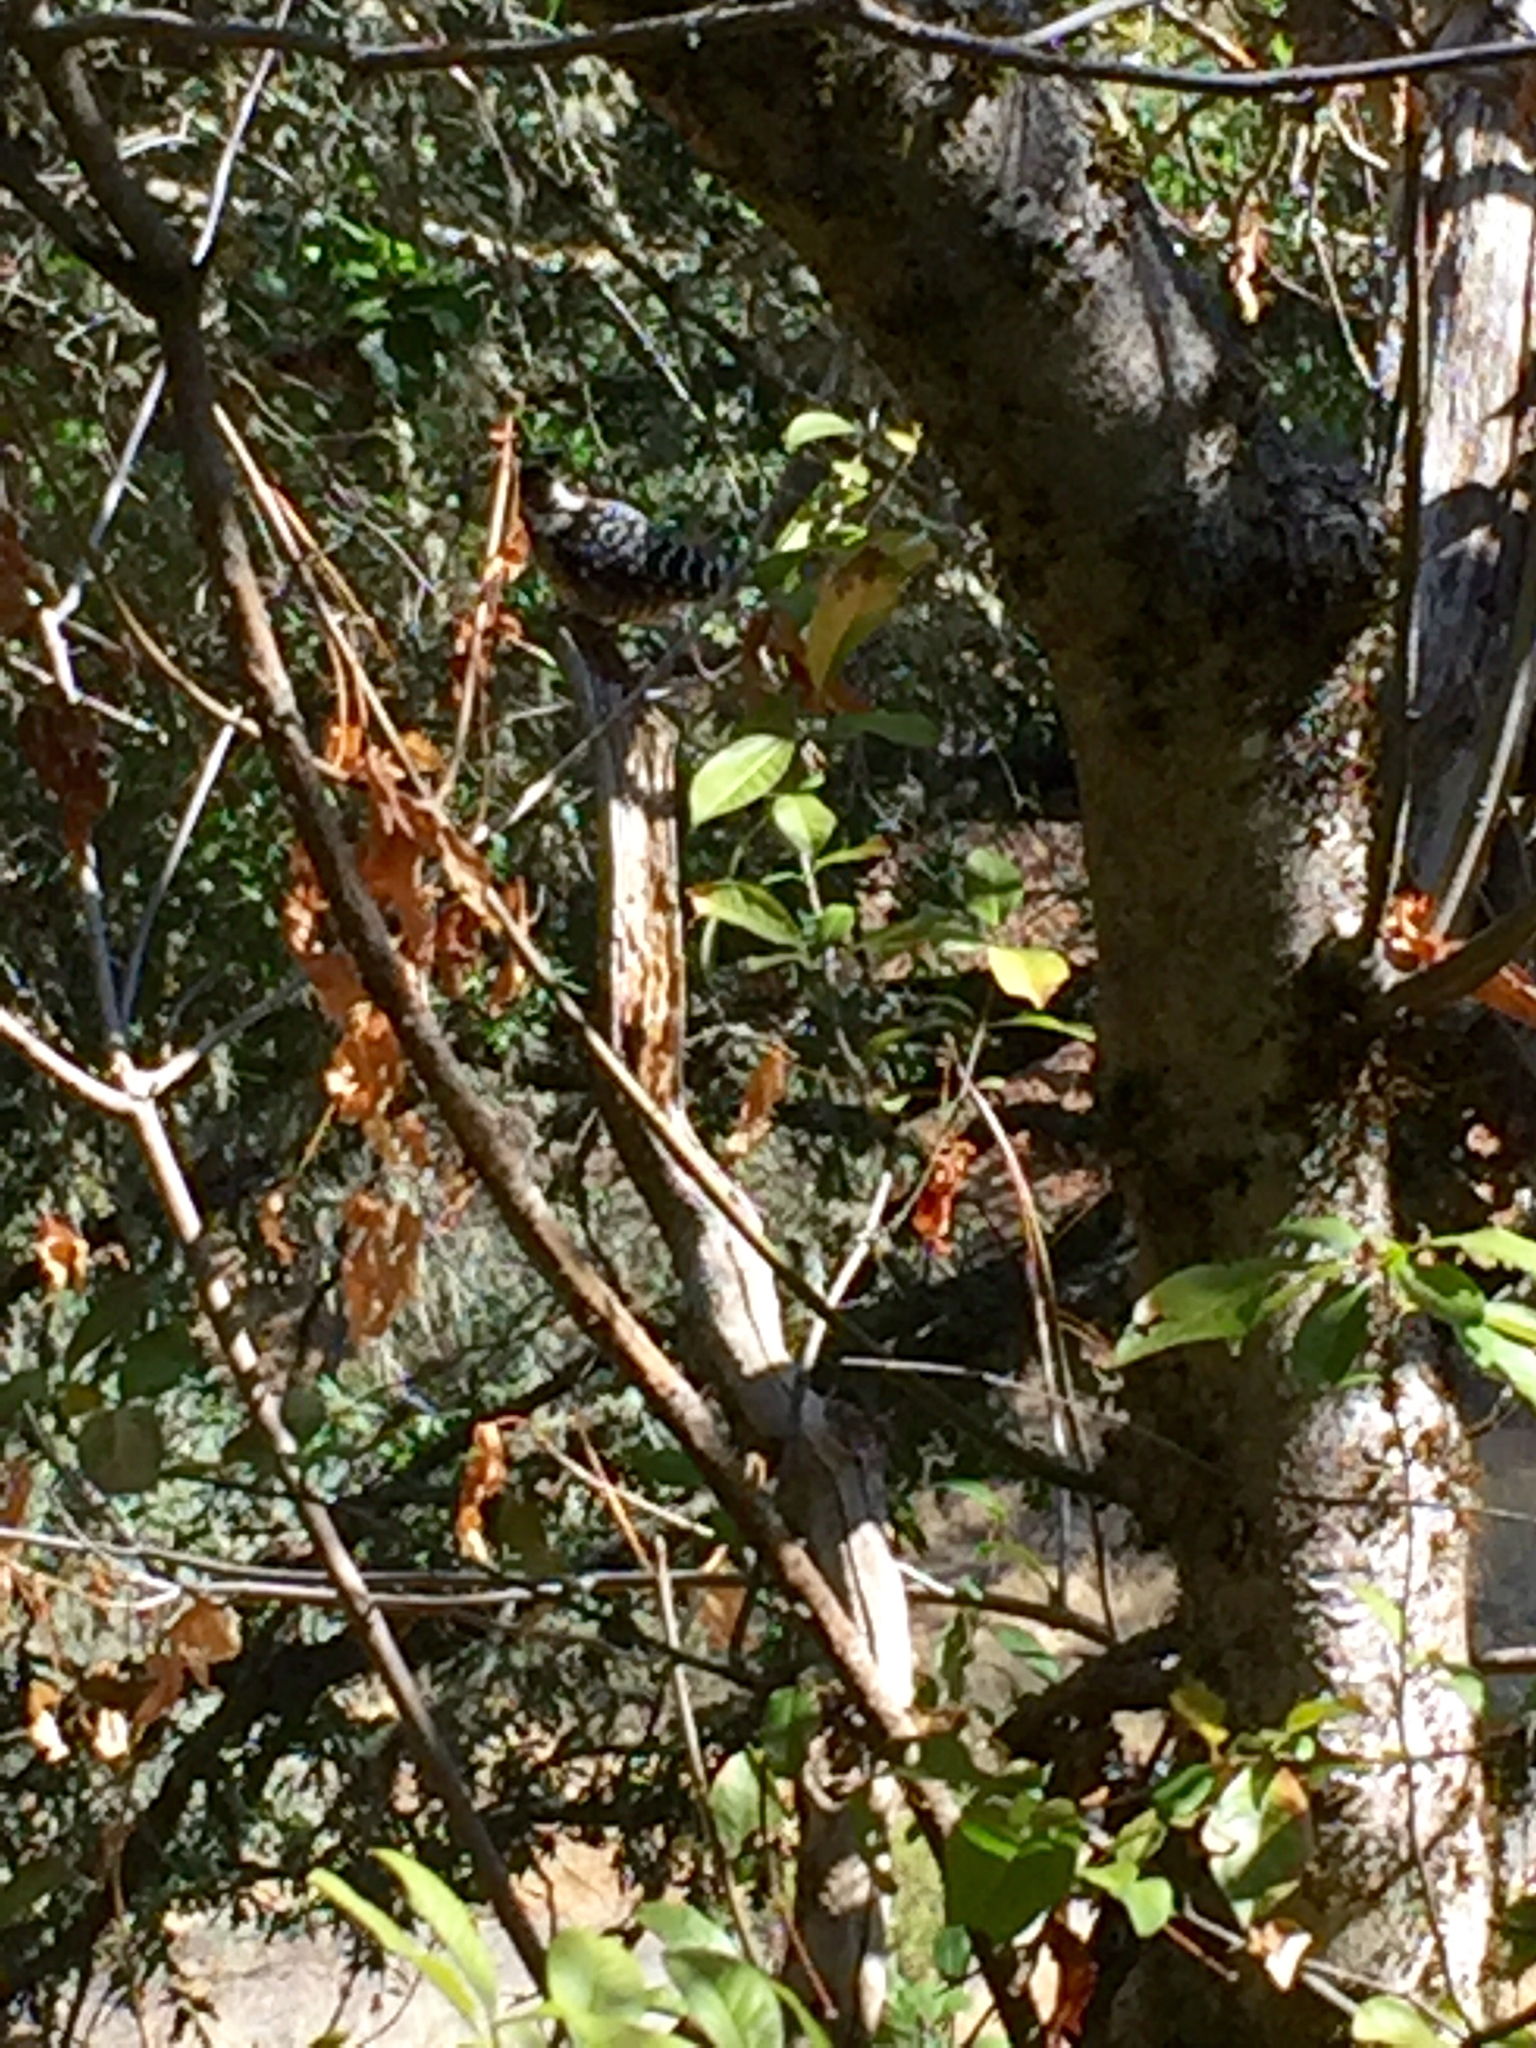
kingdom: Animalia
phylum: Chordata
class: Aves
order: Piciformes
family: Picidae
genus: Dryobates
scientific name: Dryobates nuttallii
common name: Nuttall's woodpecker
